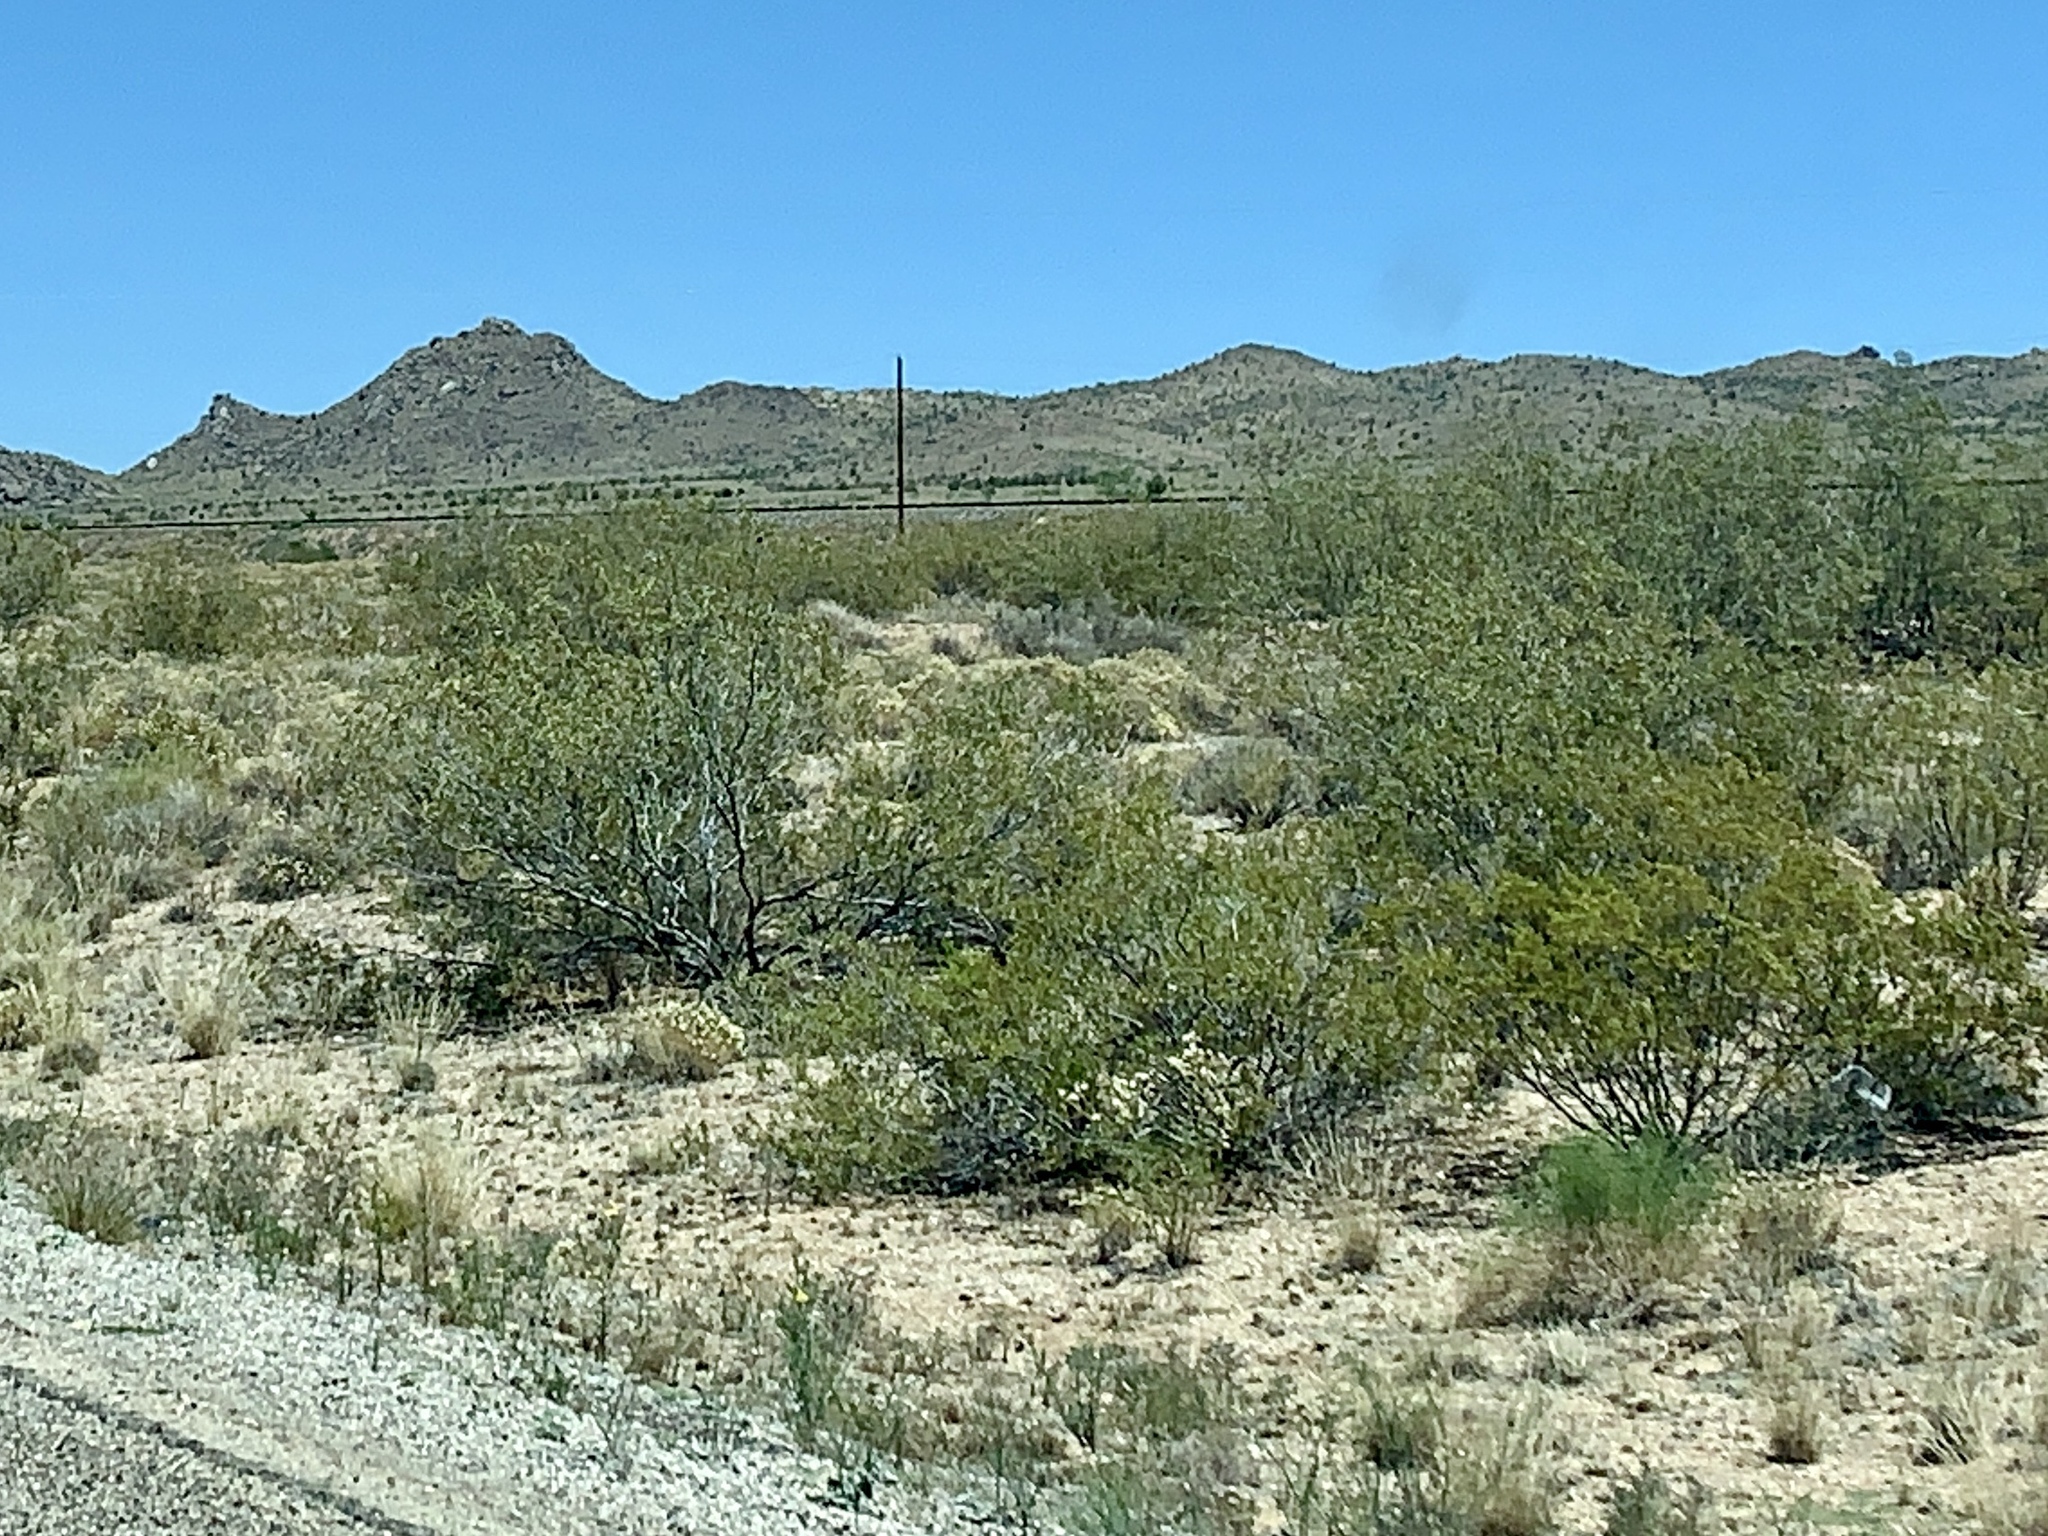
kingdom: Plantae
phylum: Tracheophyta
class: Magnoliopsida
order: Zygophyllales
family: Zygophyllaceae
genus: Larrea
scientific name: Larrea tridentata
